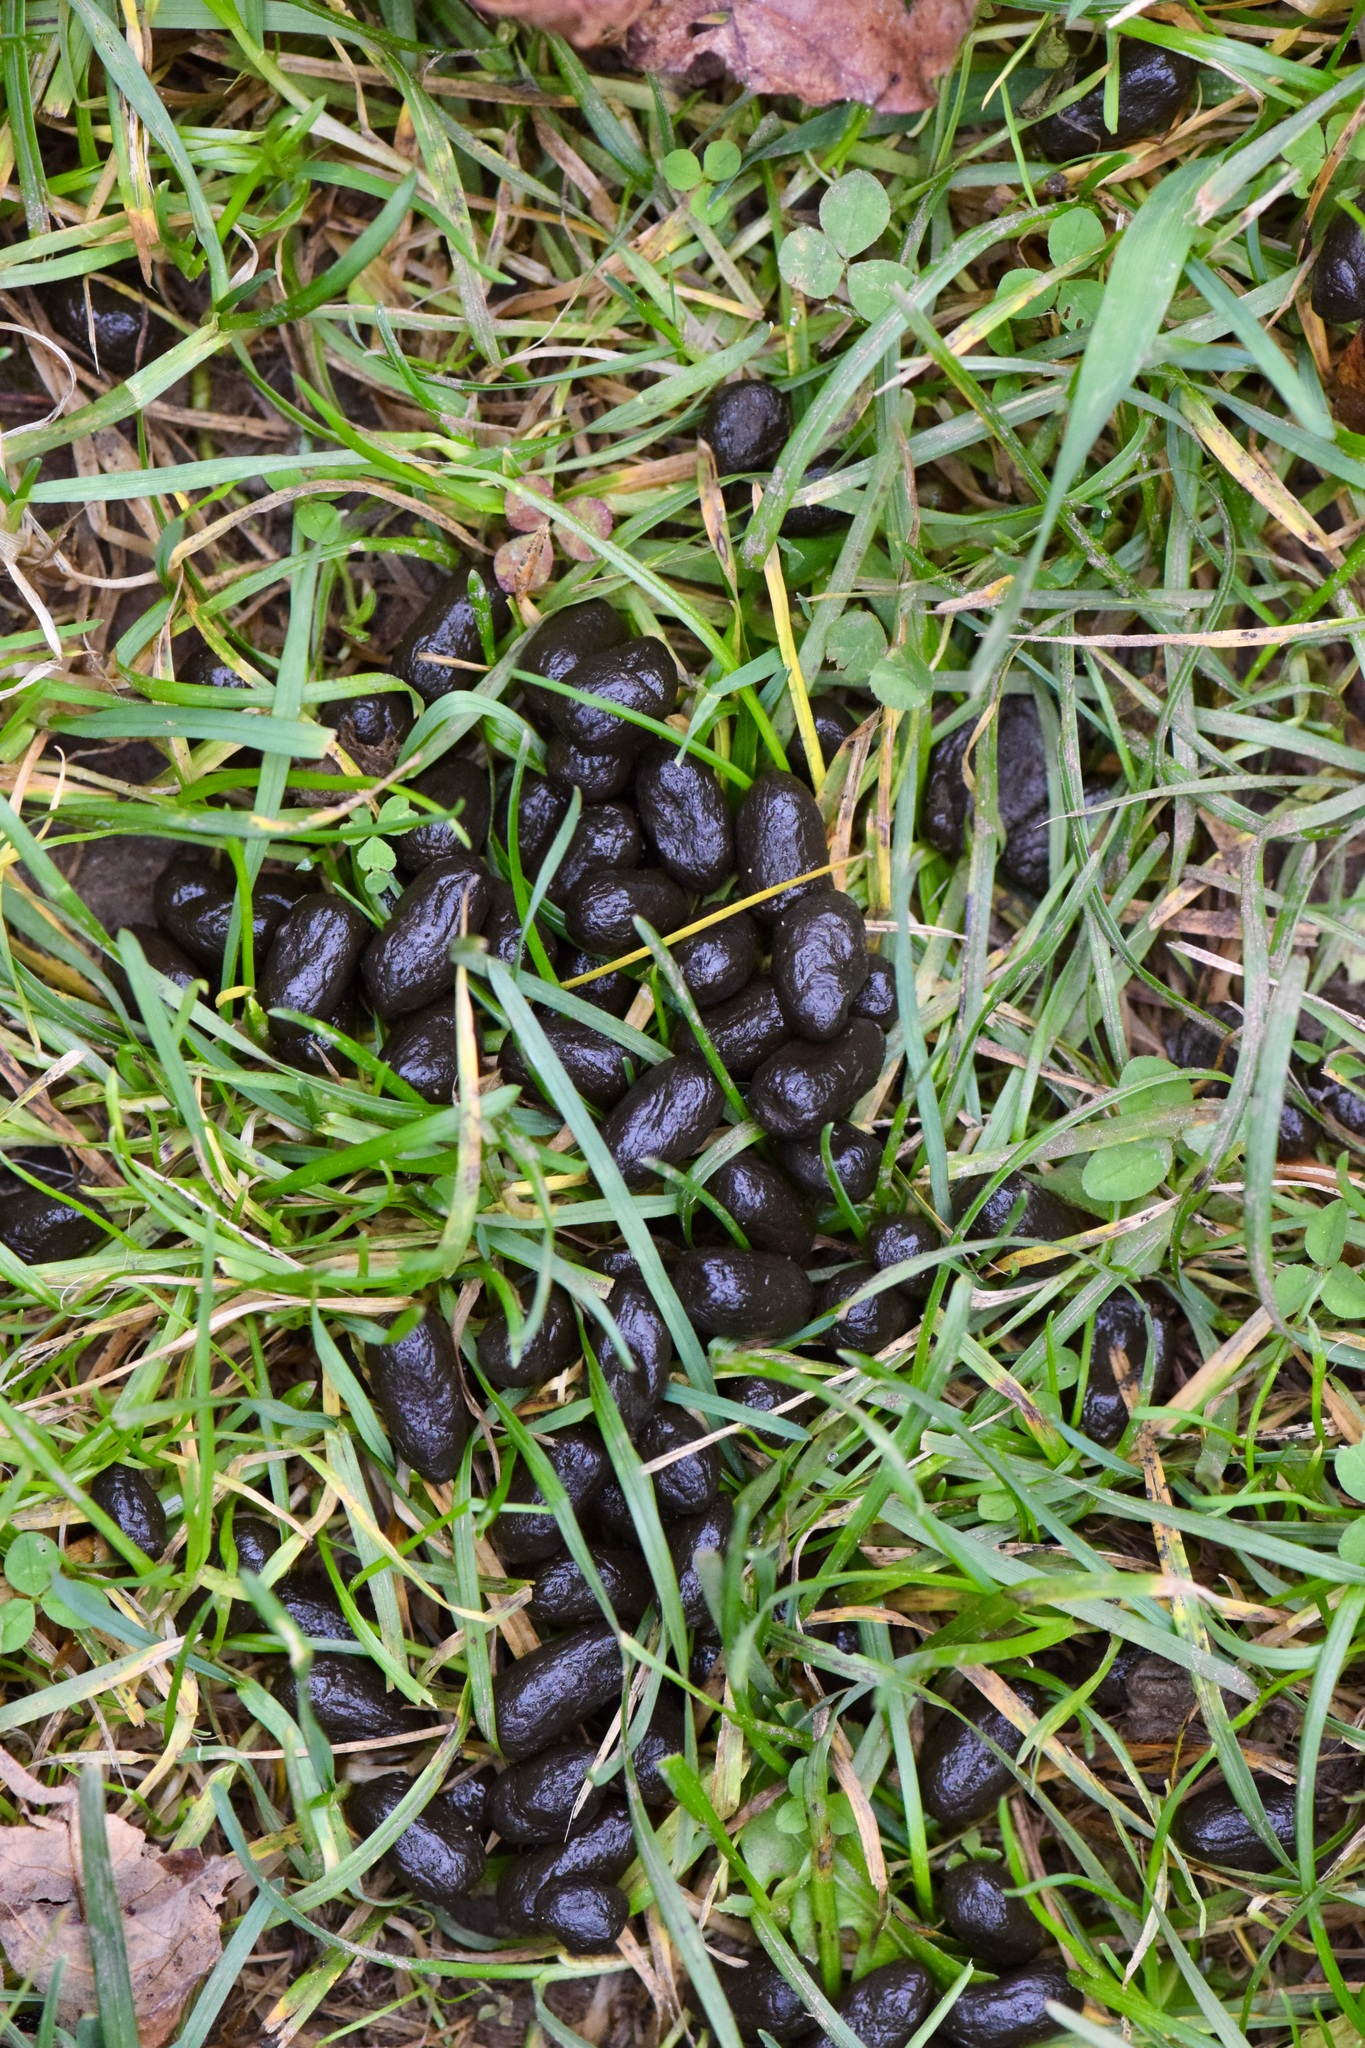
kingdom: Animalia
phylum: Chordata
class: Mammalia
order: Artiodactyla
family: Cervidae
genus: Odocoileus
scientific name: Odocoileus virginianus
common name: White-tailed deer
